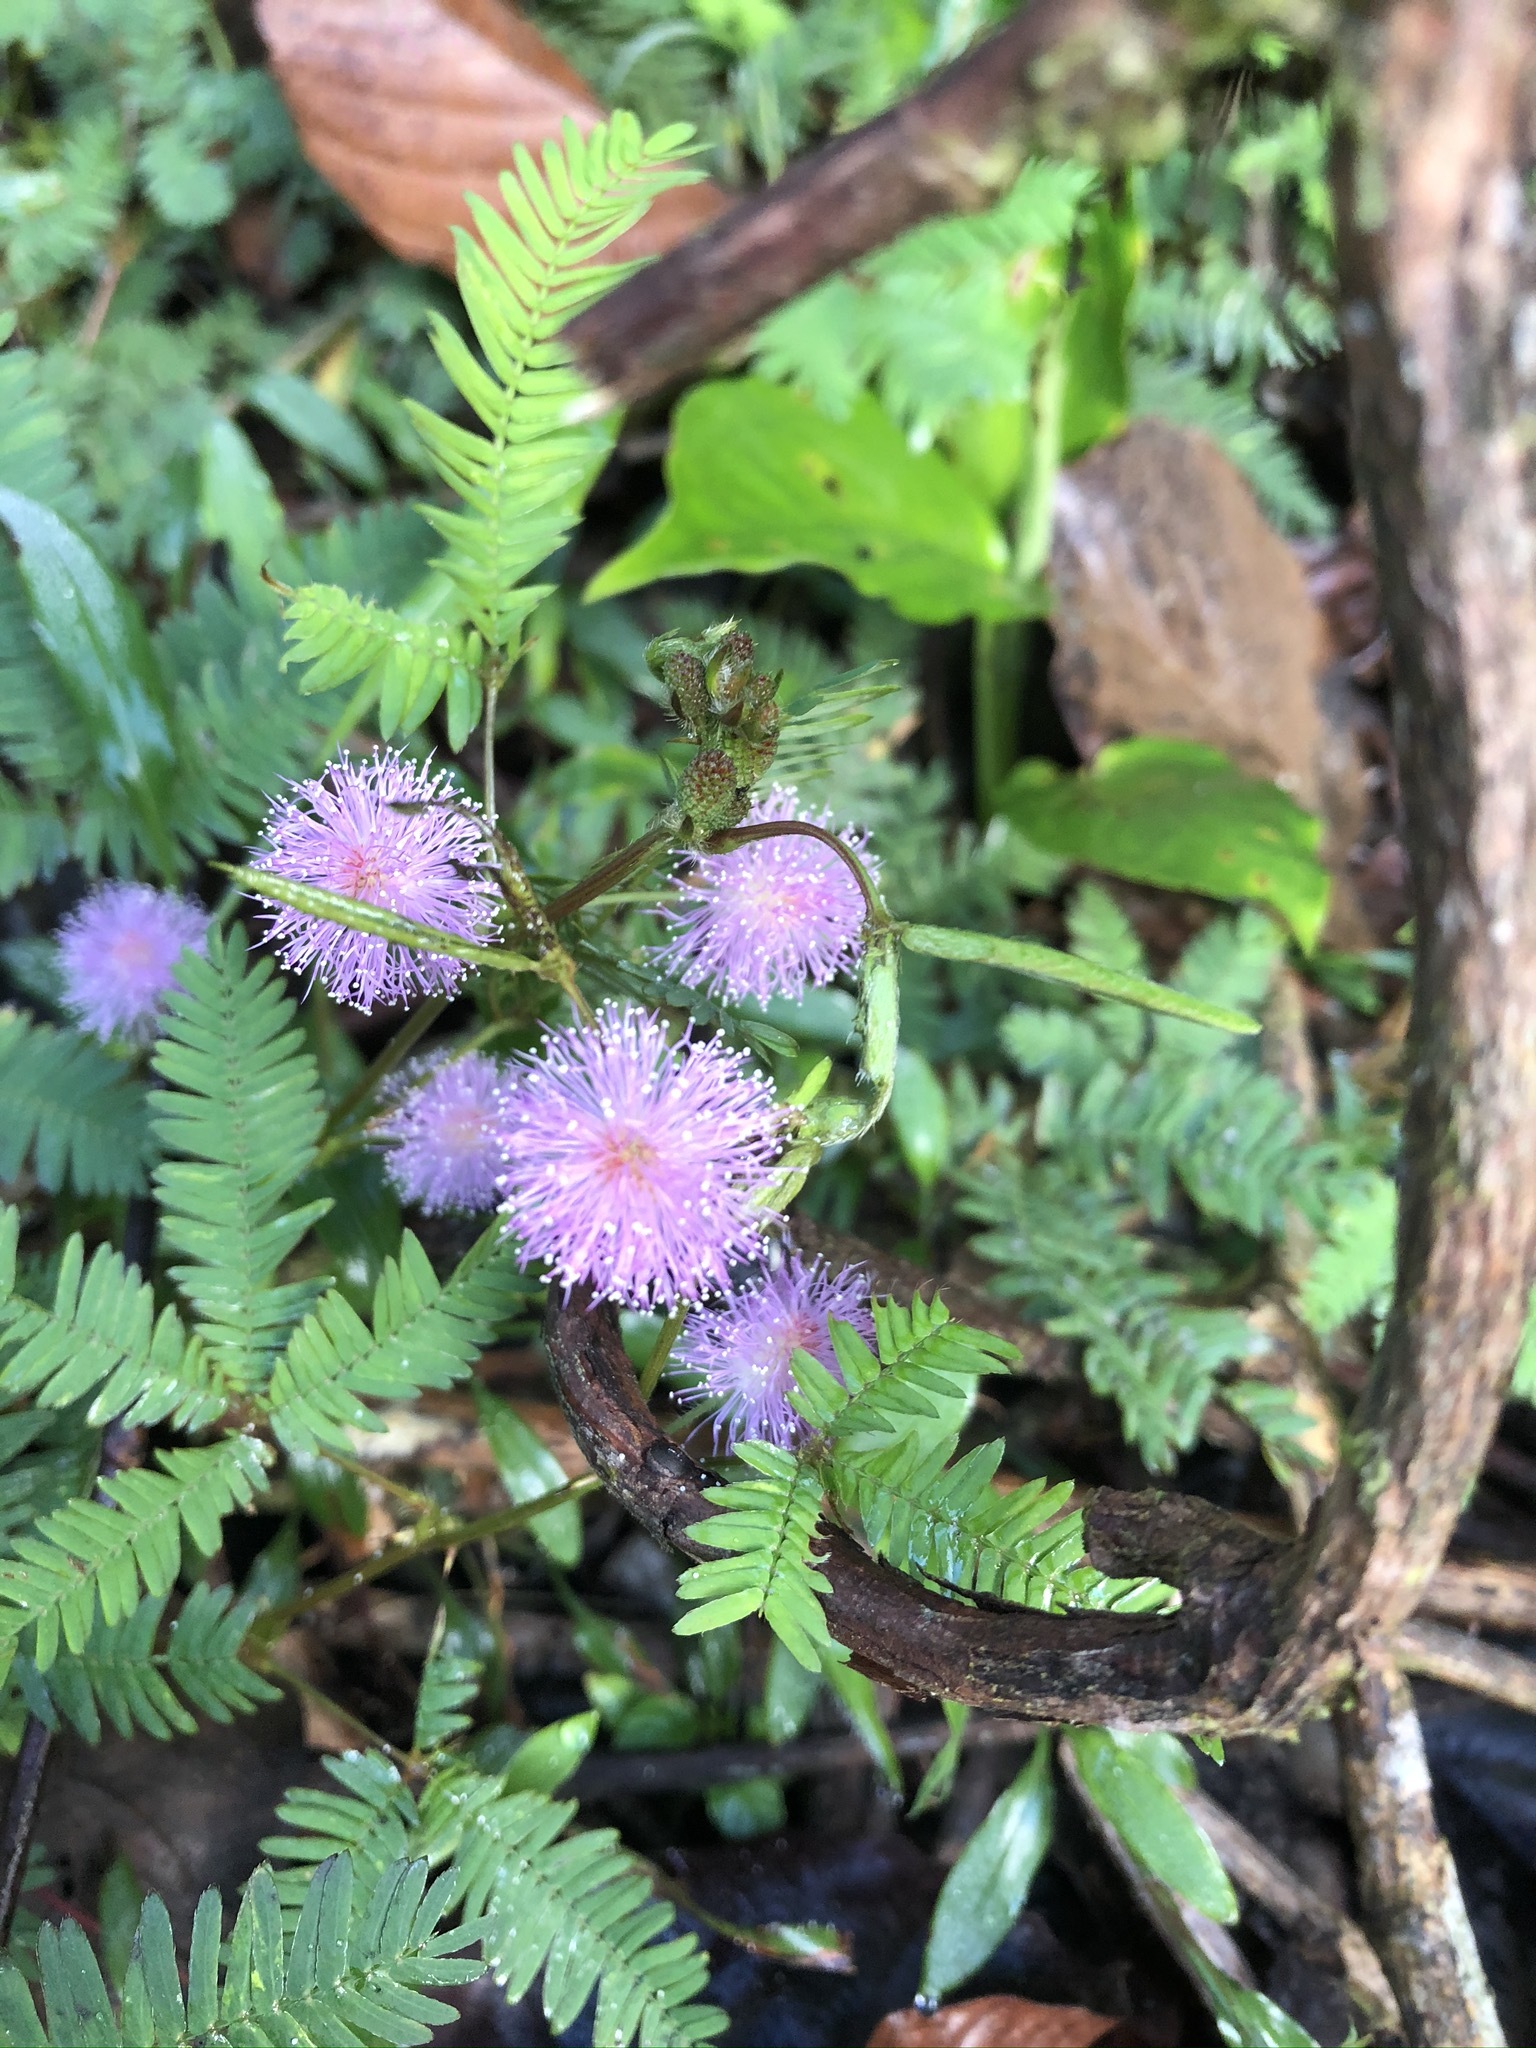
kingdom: Plantae
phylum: Tracheophyta
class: Magnoliopsida
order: Fabales
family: Fabaceae
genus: Mimosa
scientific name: Mimosa pudica
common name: Sensitive plant
